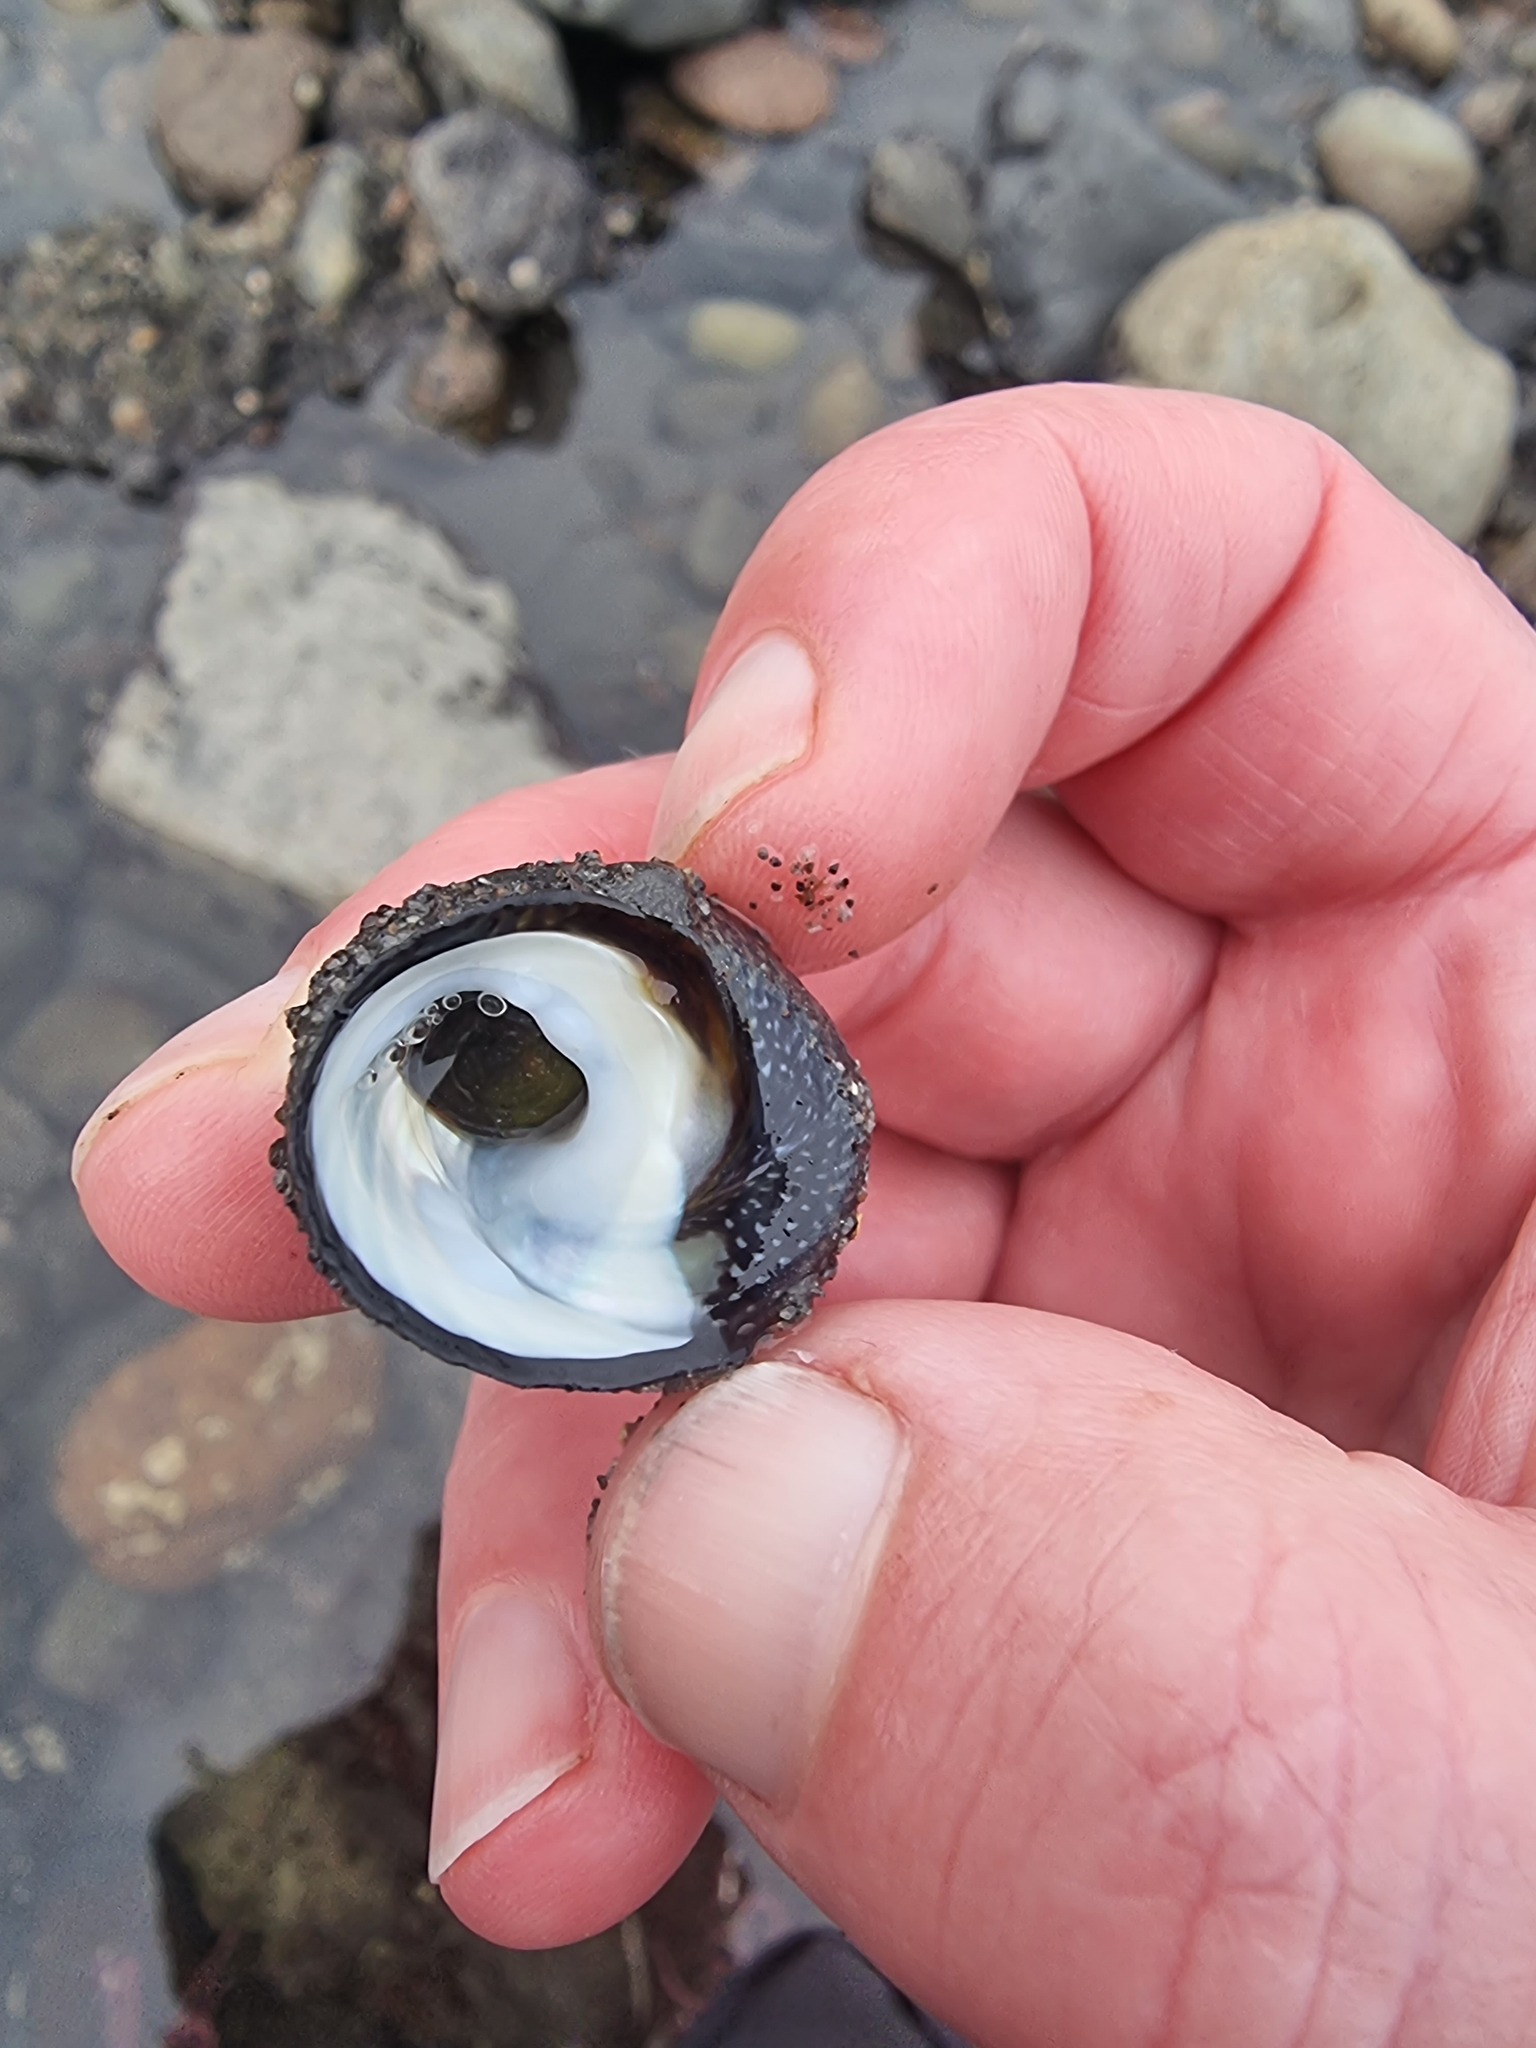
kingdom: Animalia
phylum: Mollusca
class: Gastropoda
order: Trochida
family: Trochidae
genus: Diloma
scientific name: Diloma aethiops
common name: Scorched monodont
